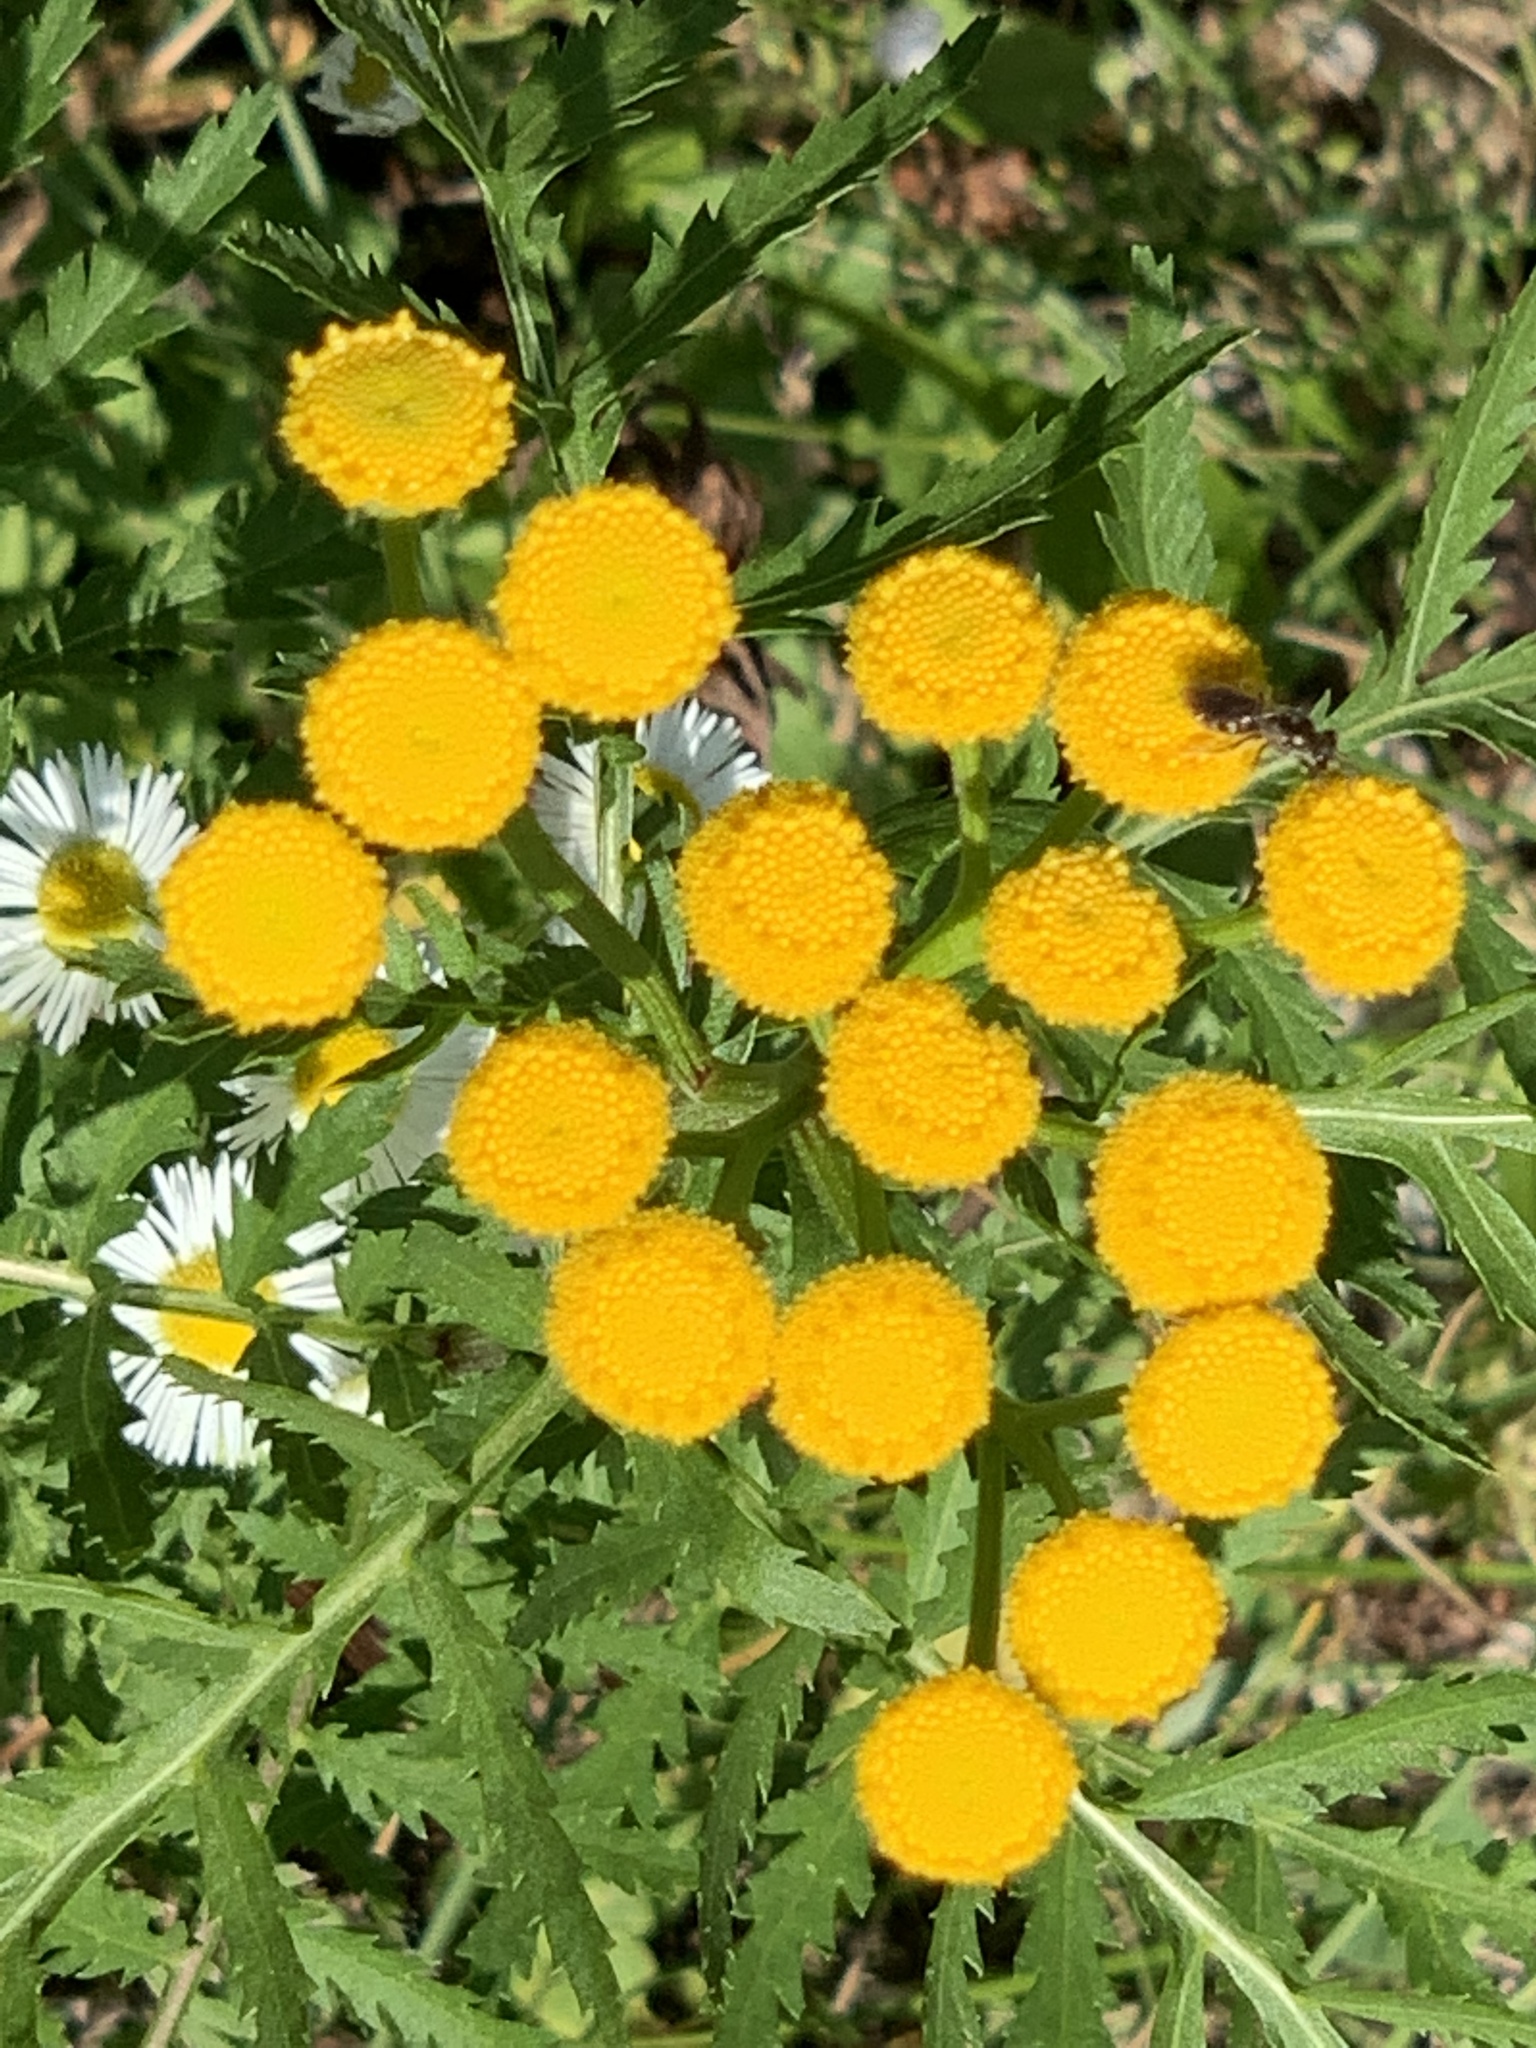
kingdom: Plantae
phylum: Tracheophyta
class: Magnoliopsida
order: Asterales
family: Asteraceae
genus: Tanacetum
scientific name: Tanacetum vulgare
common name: Common tansy
